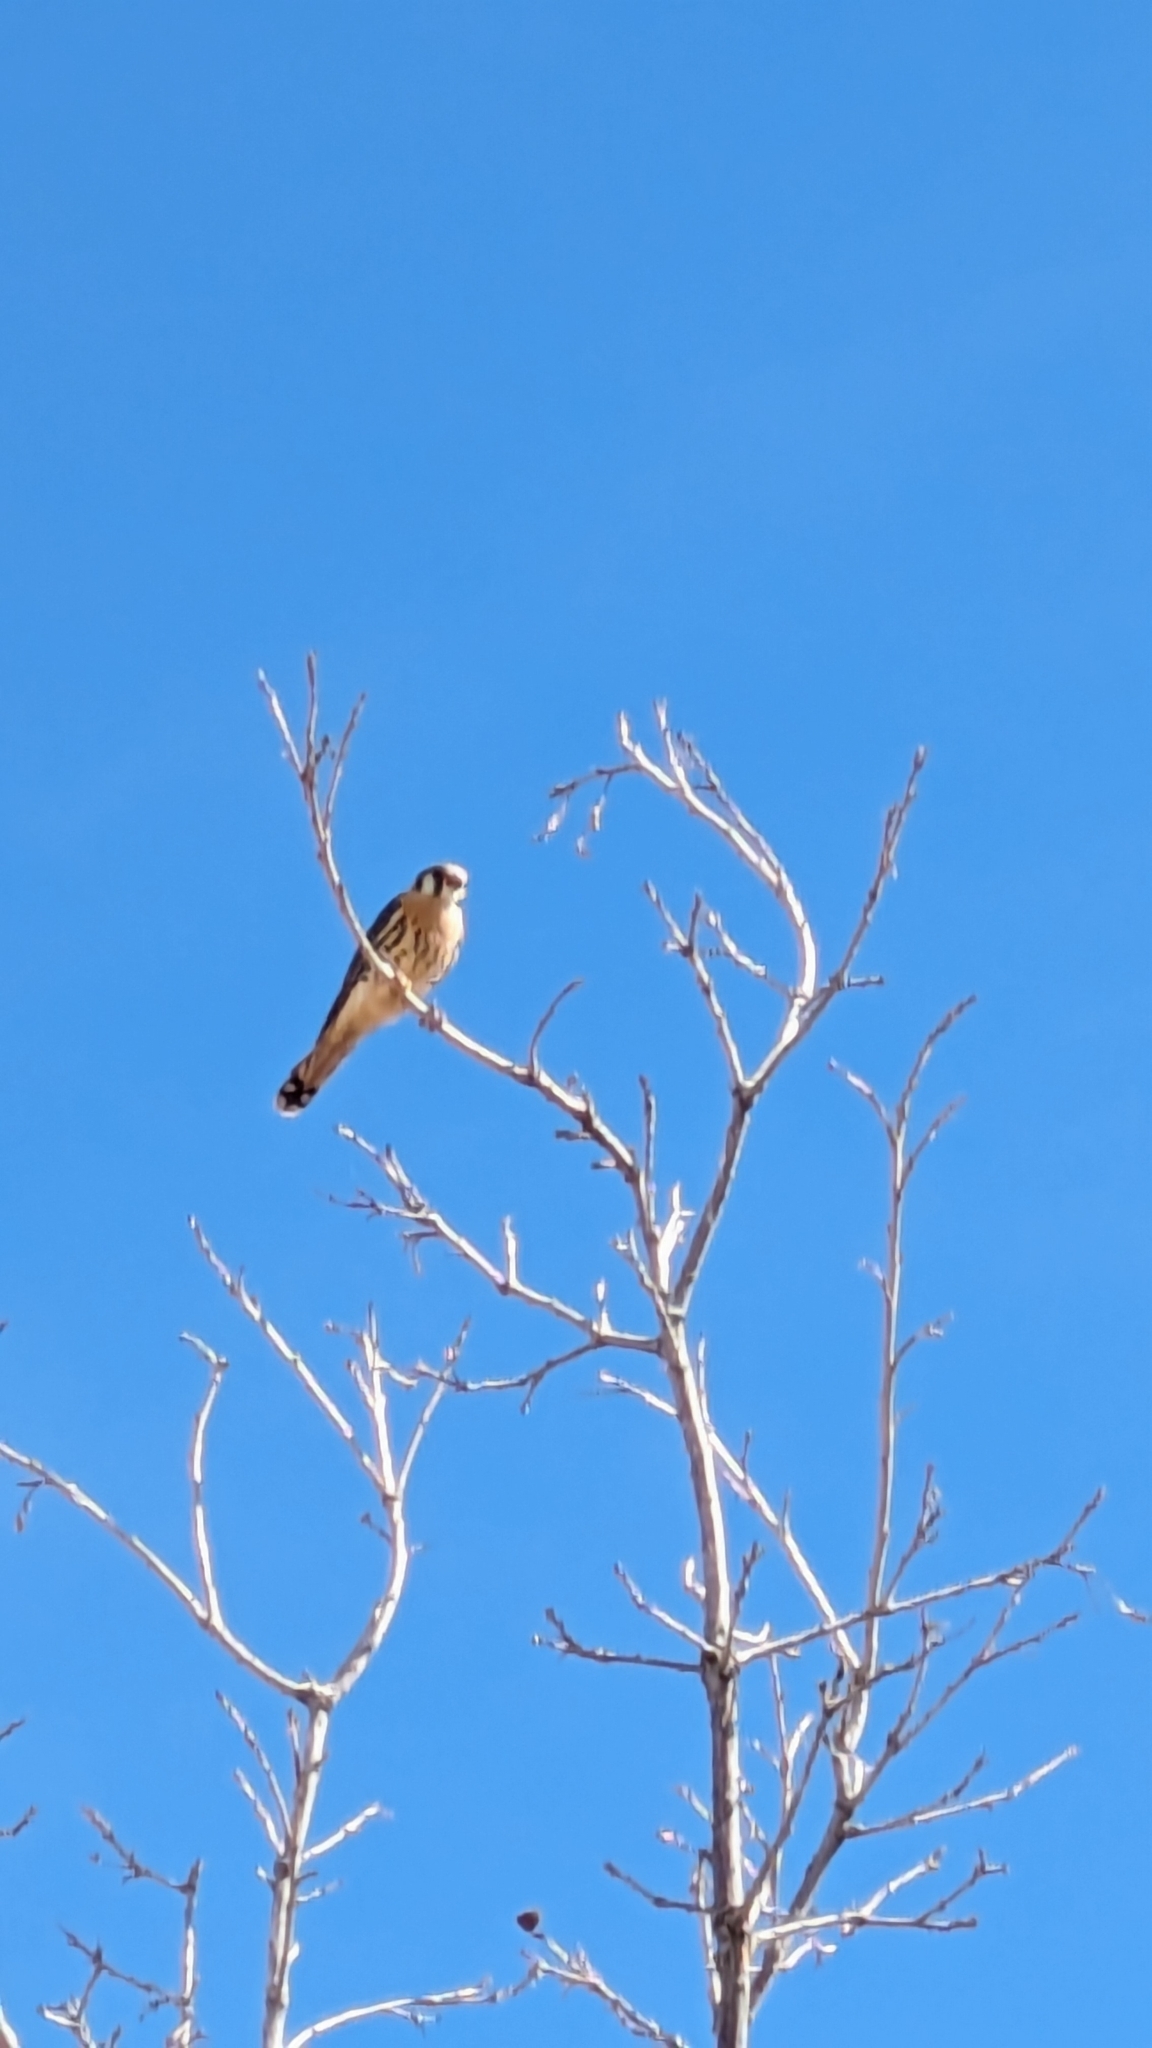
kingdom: Animalia
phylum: Chordata
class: Aves
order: Falconiformes
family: Falconidae
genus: Falco
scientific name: Falco sparverius
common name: American kestrel
